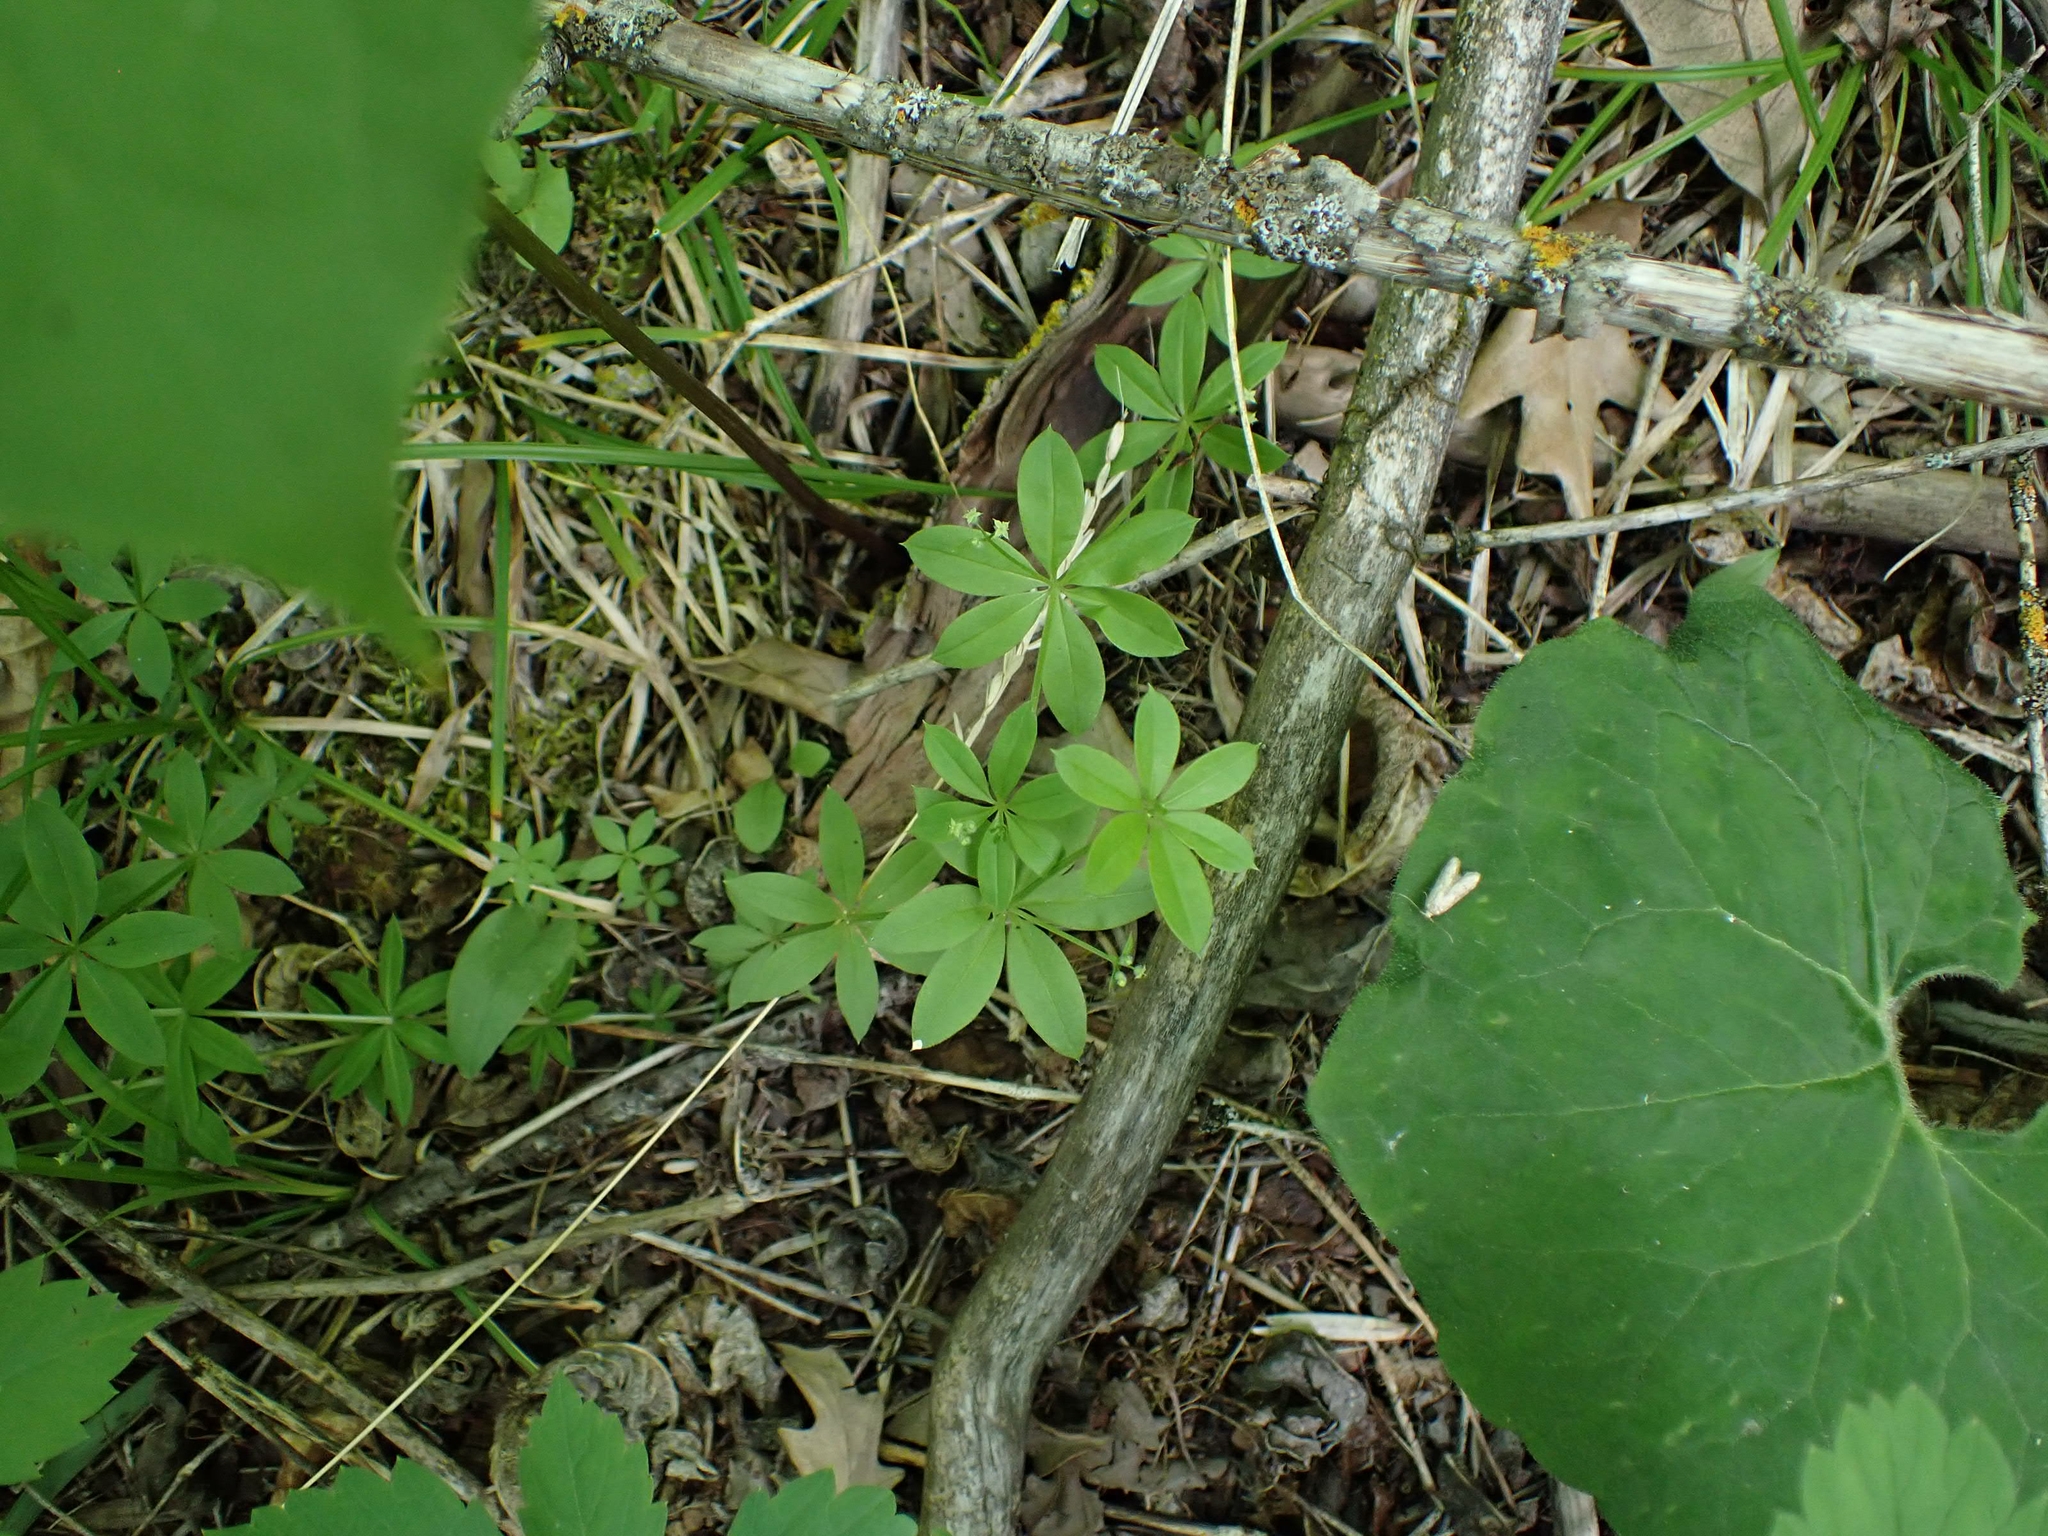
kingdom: Plantae
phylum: Tracheophyta
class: Magnoliopsida
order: Gentianales
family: Rubiaceae
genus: Galium
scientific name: Galium triflorum
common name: Fragrant bedstraw
